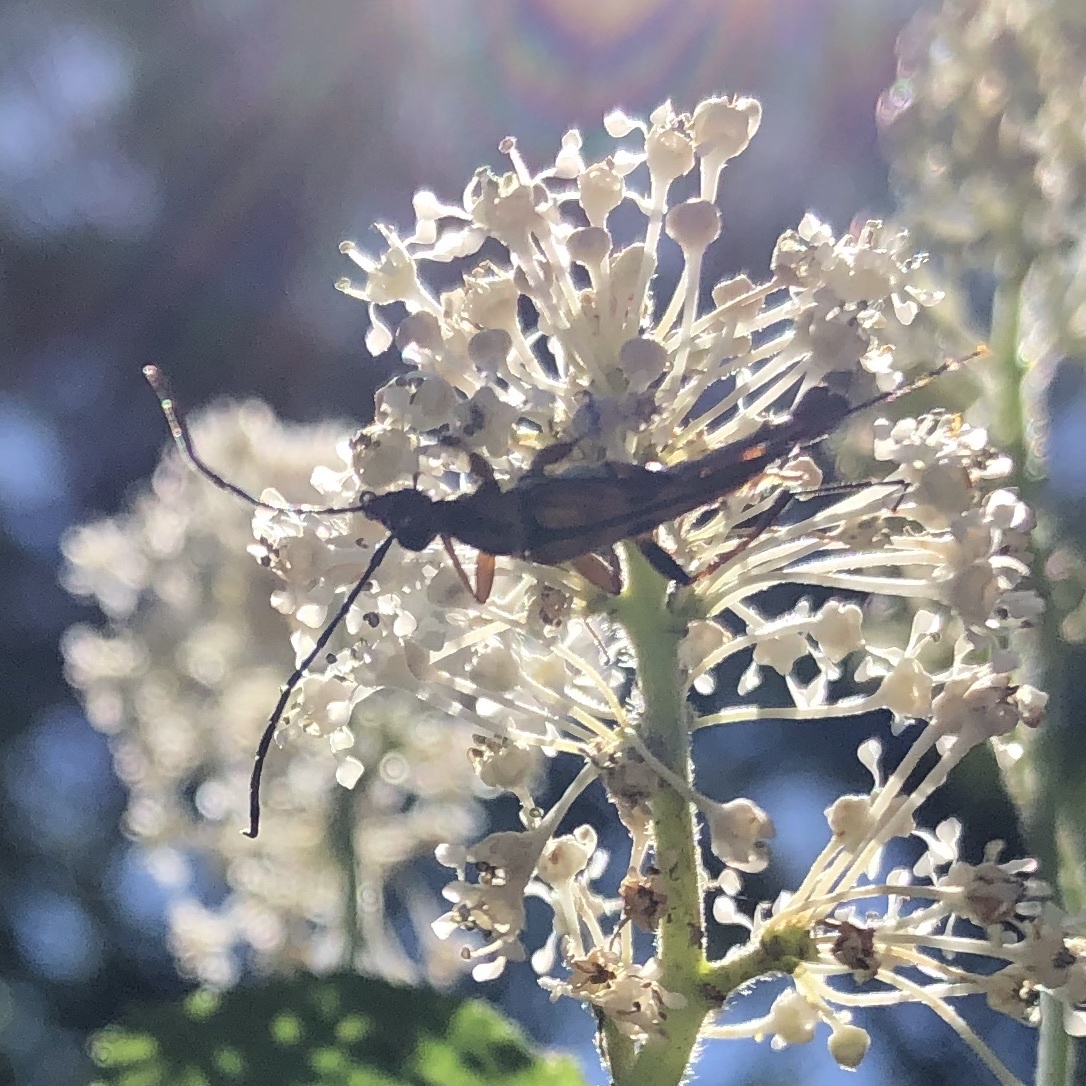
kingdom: Animalia
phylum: Arthropoda
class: Insecta
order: Coleoptera
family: Cerambycidae
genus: Strangalia
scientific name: Strangalia famelica
